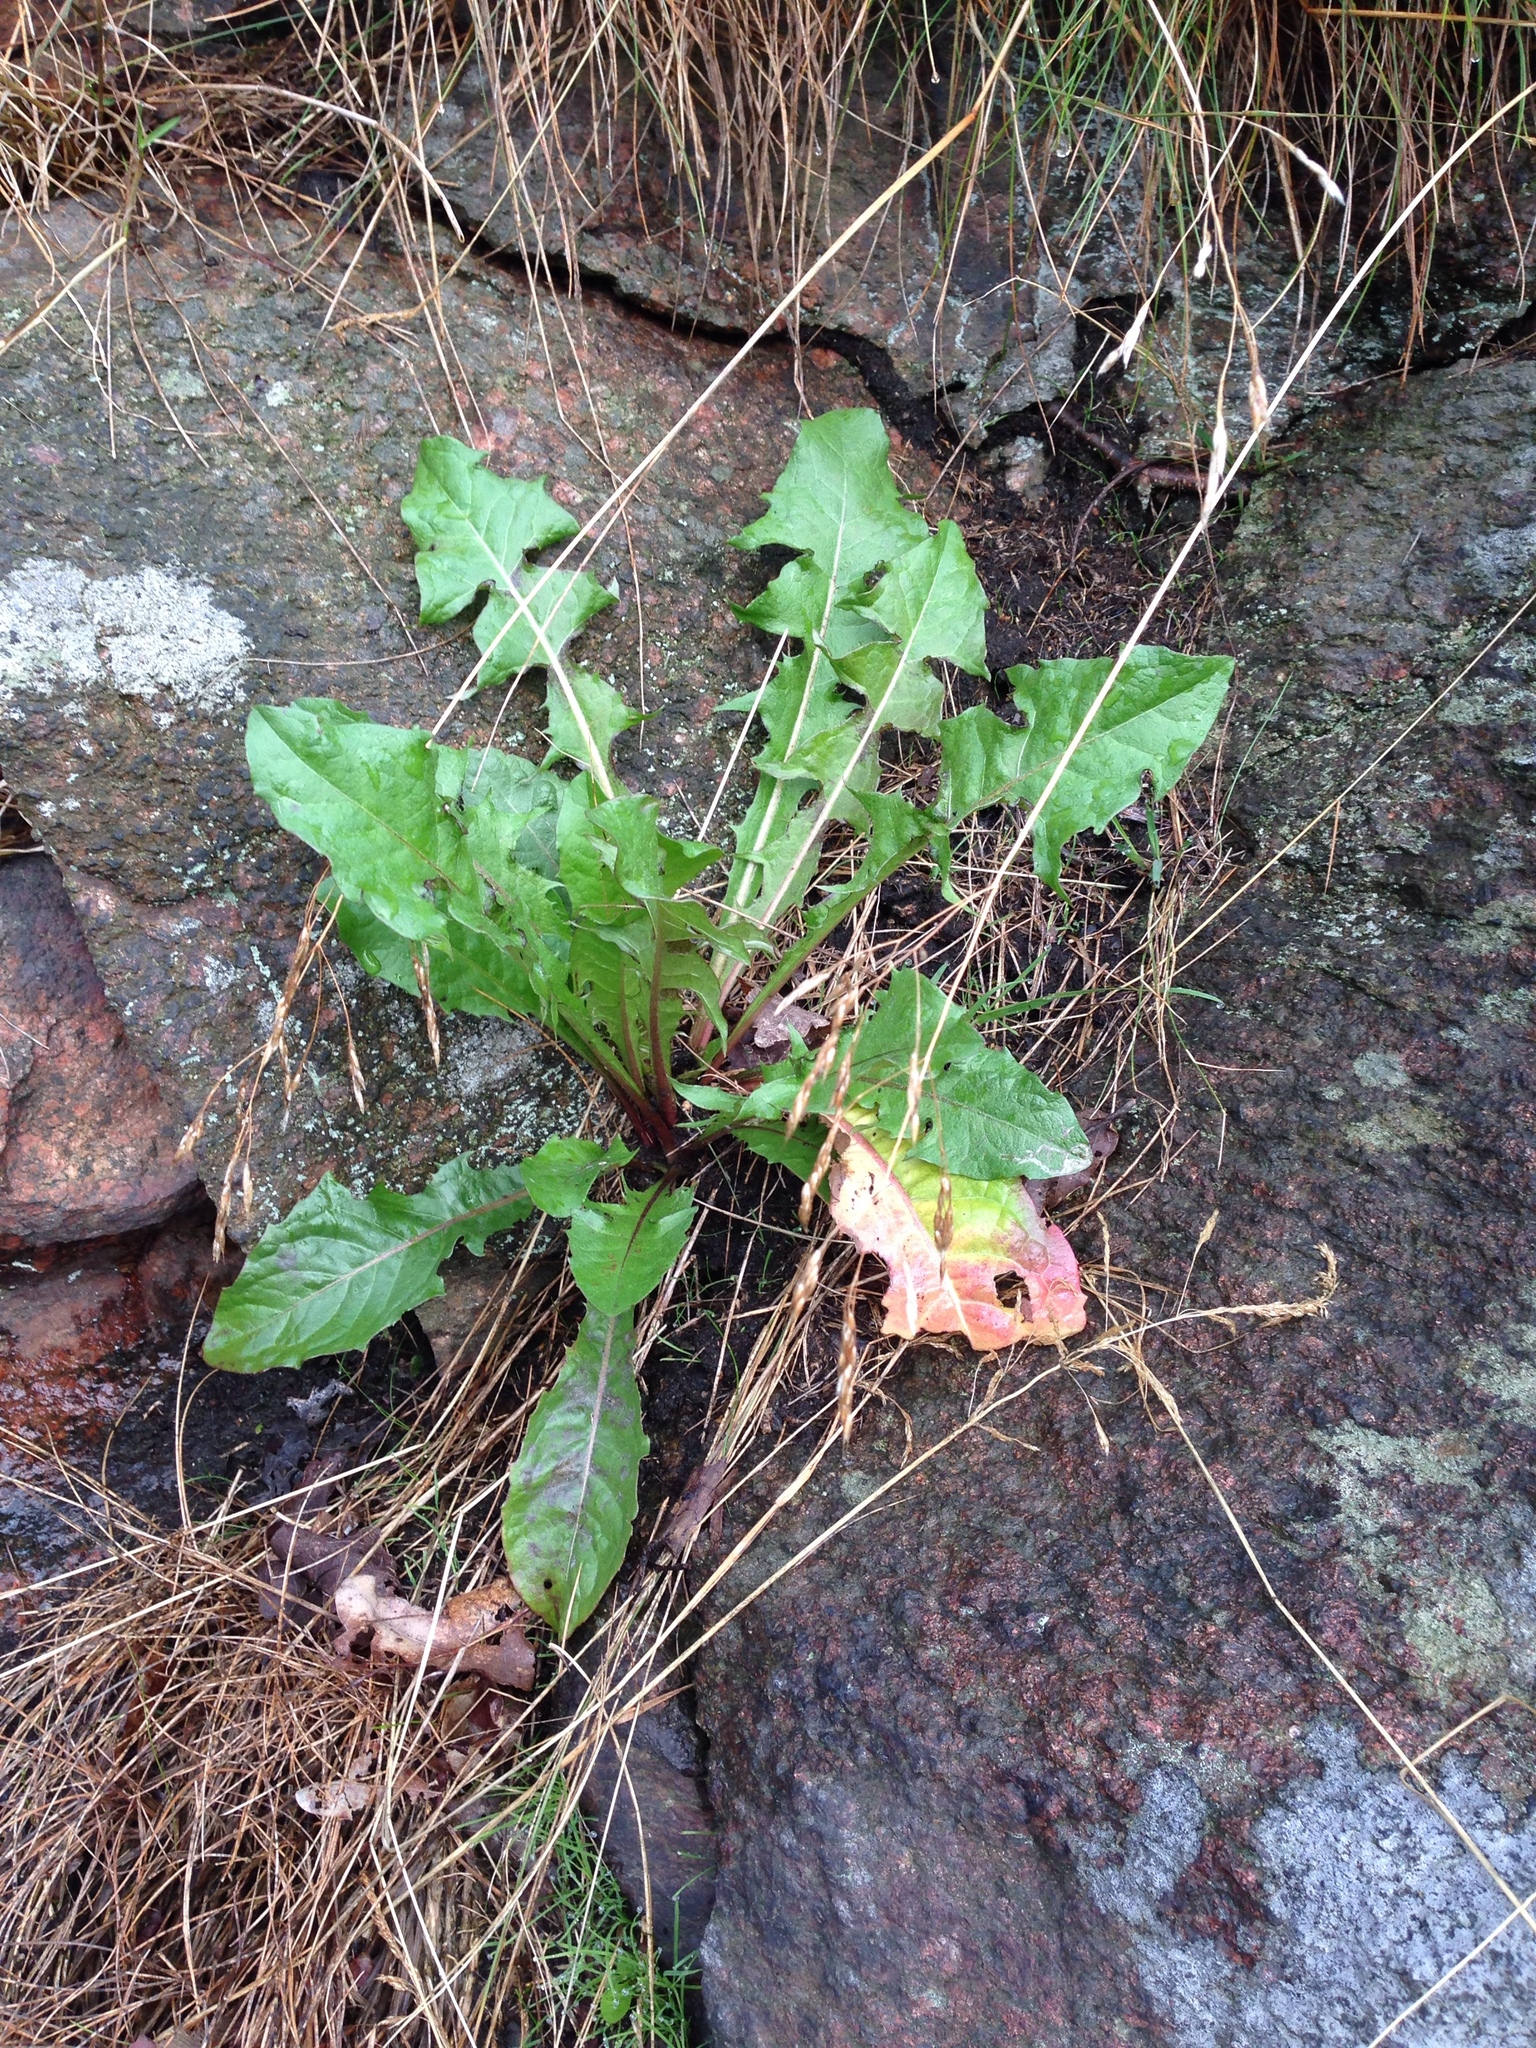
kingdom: Plantae
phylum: Tracheophyta
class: Magnoliopsida
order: Asterales
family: Asteraceae
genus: Taraxacum
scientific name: Taraxacum officinale
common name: Common dandelion
